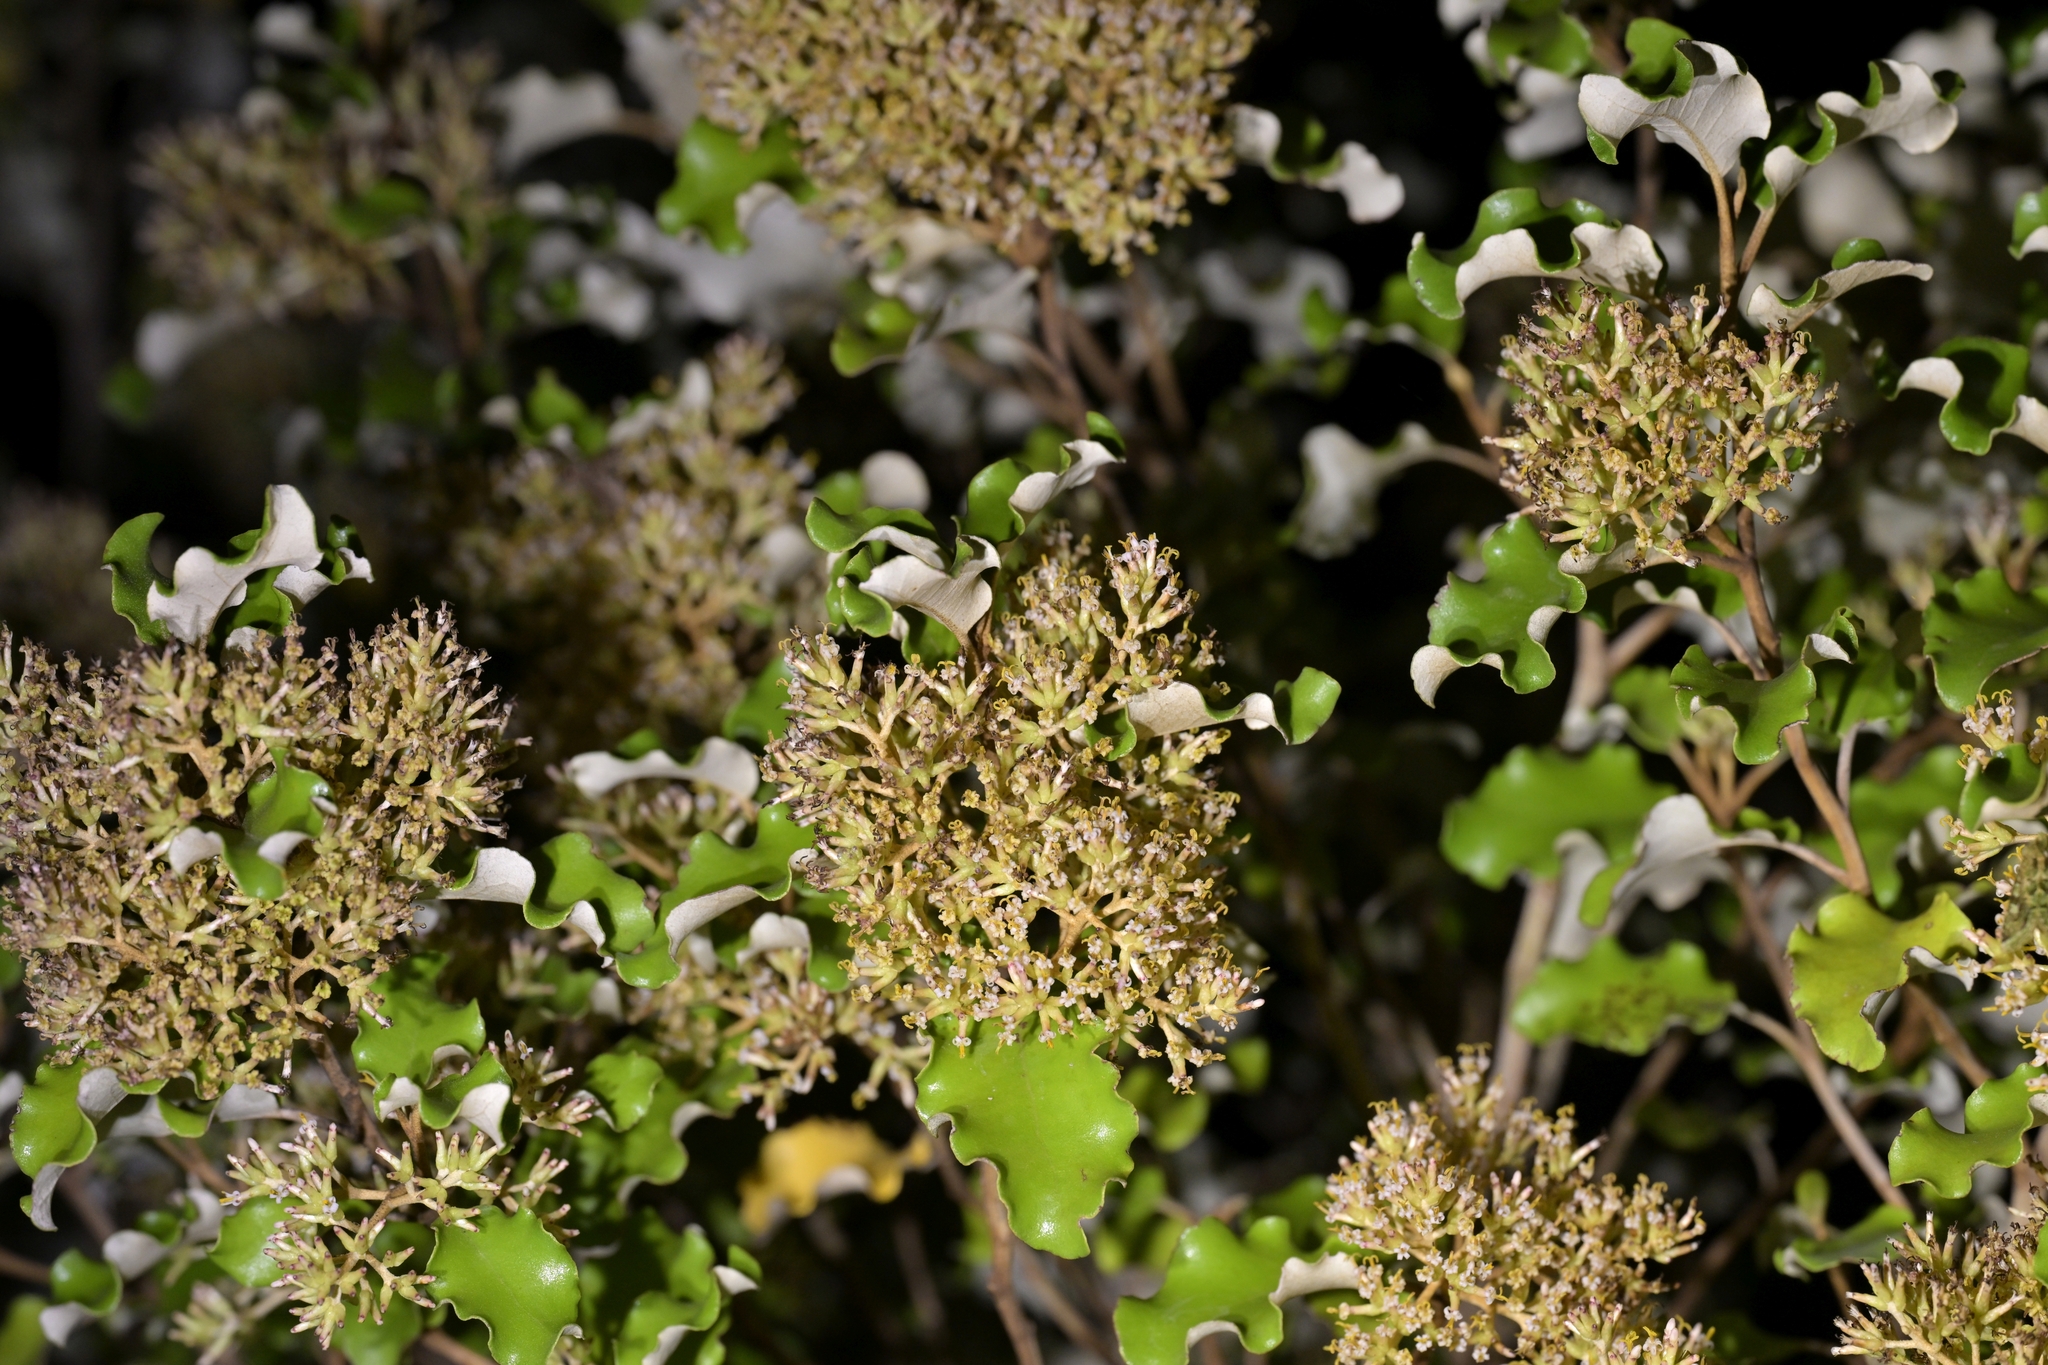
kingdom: Plantae
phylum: Tracheophyta
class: Magnoliopsida
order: Asterales
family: Asteraceae
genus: Olearia
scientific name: Olearia paniculata
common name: Akiraho
